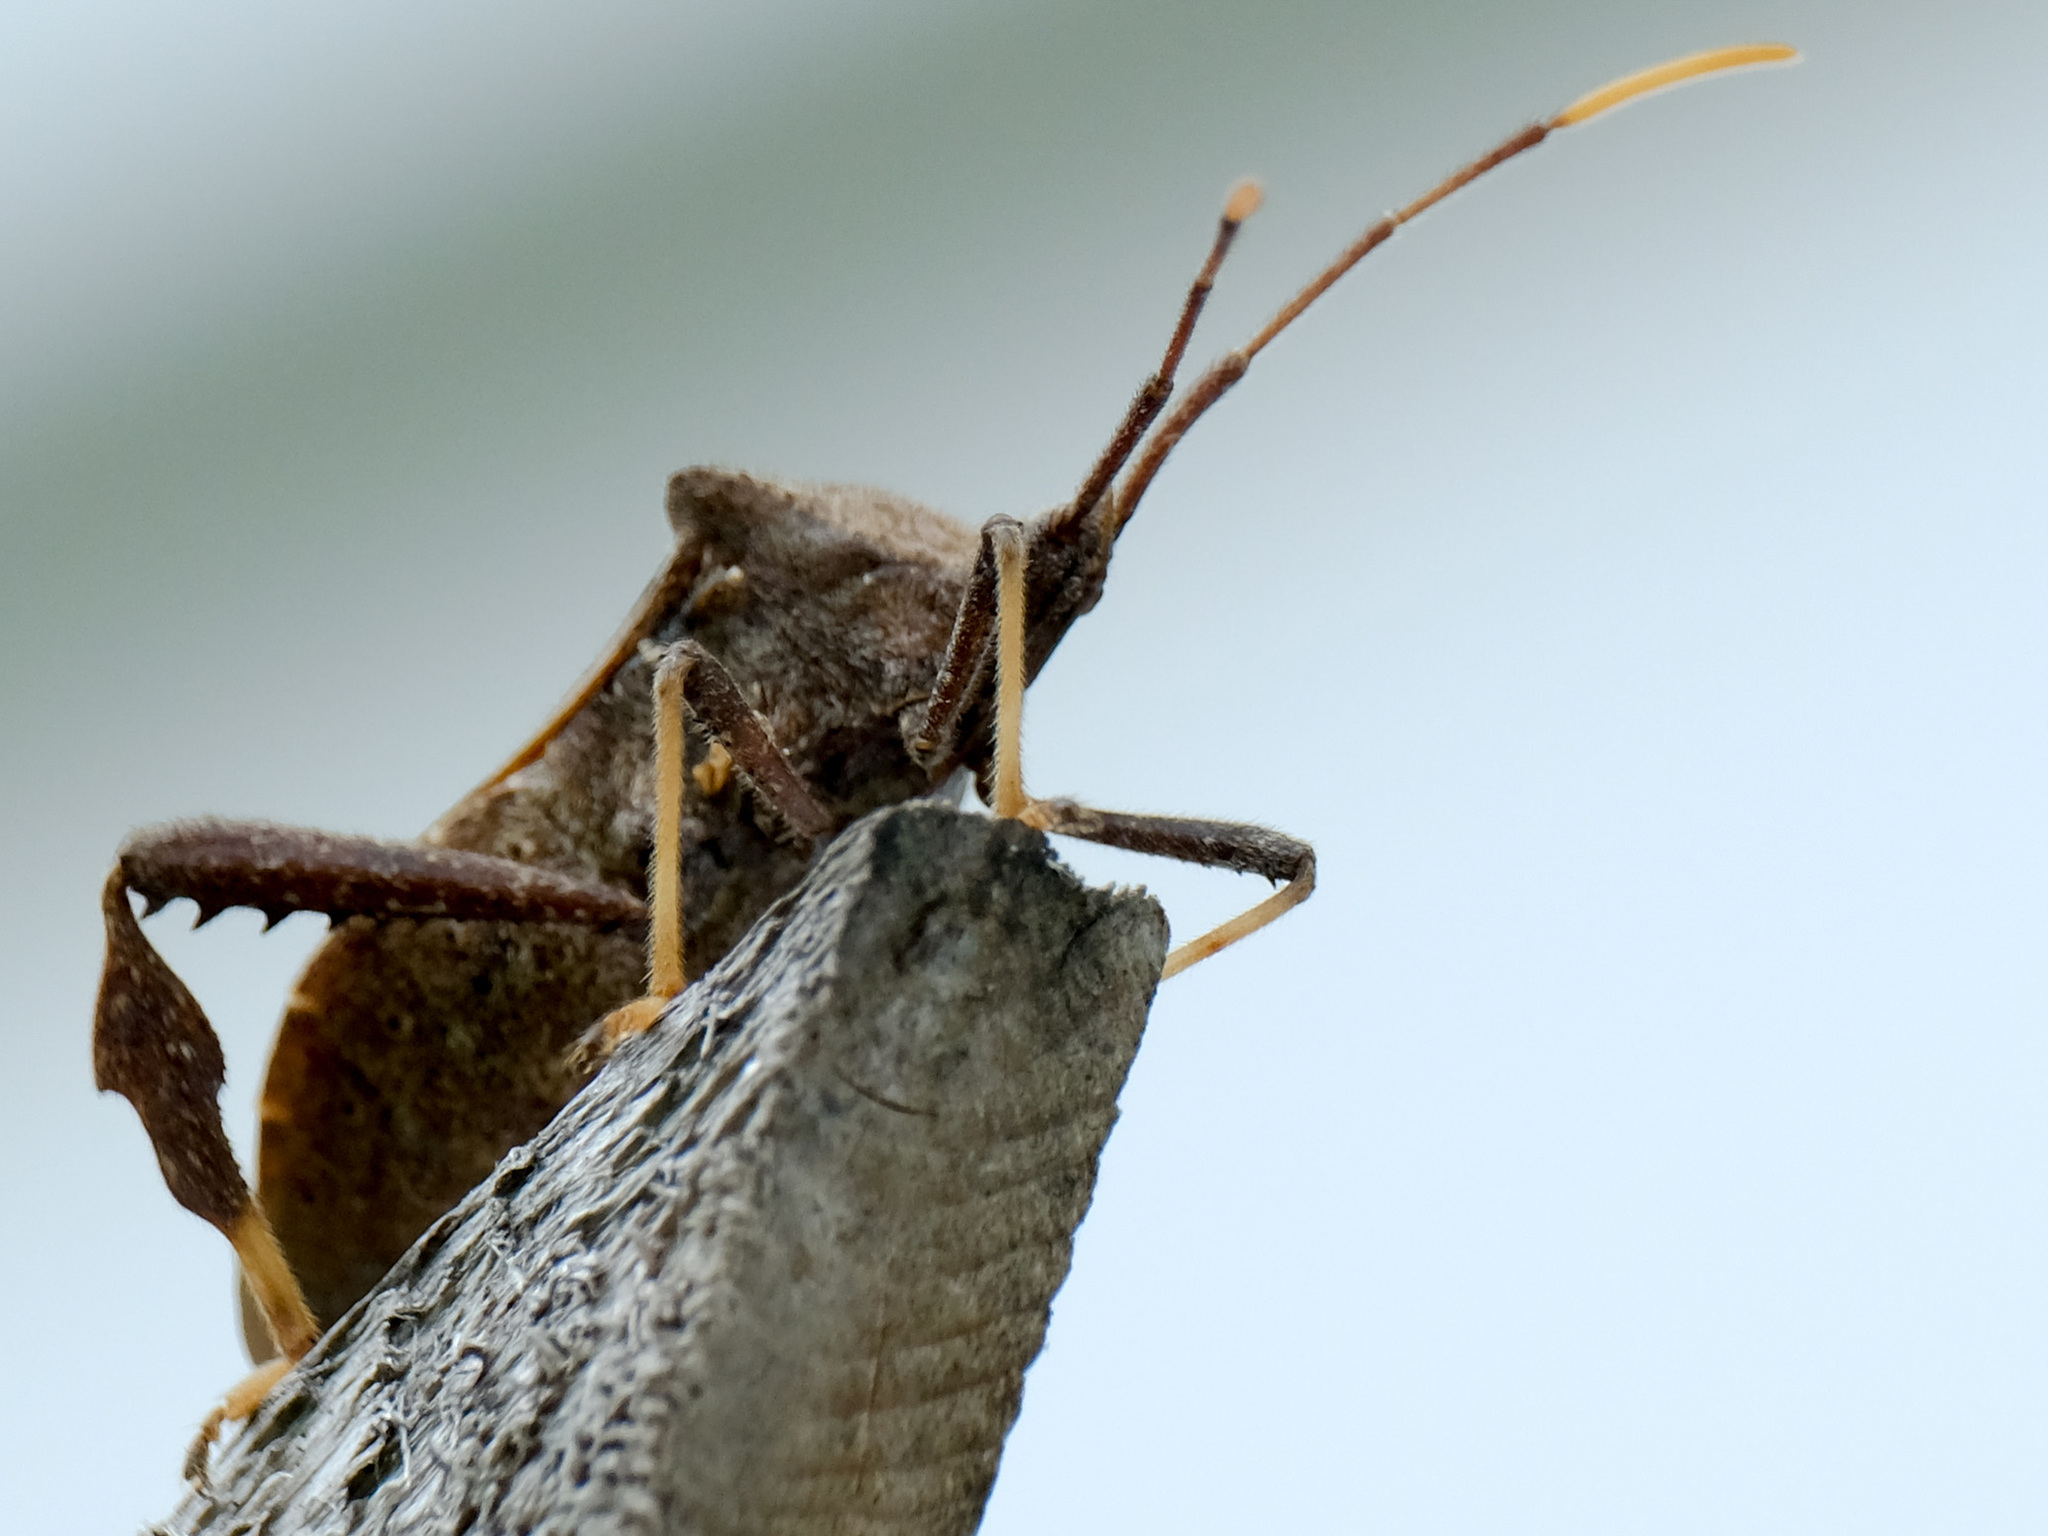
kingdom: Animalia
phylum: Arthropoda
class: Insecta
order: Hemiptera
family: Coreidae
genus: Acanthocephala
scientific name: Acanthocephala terminalis
